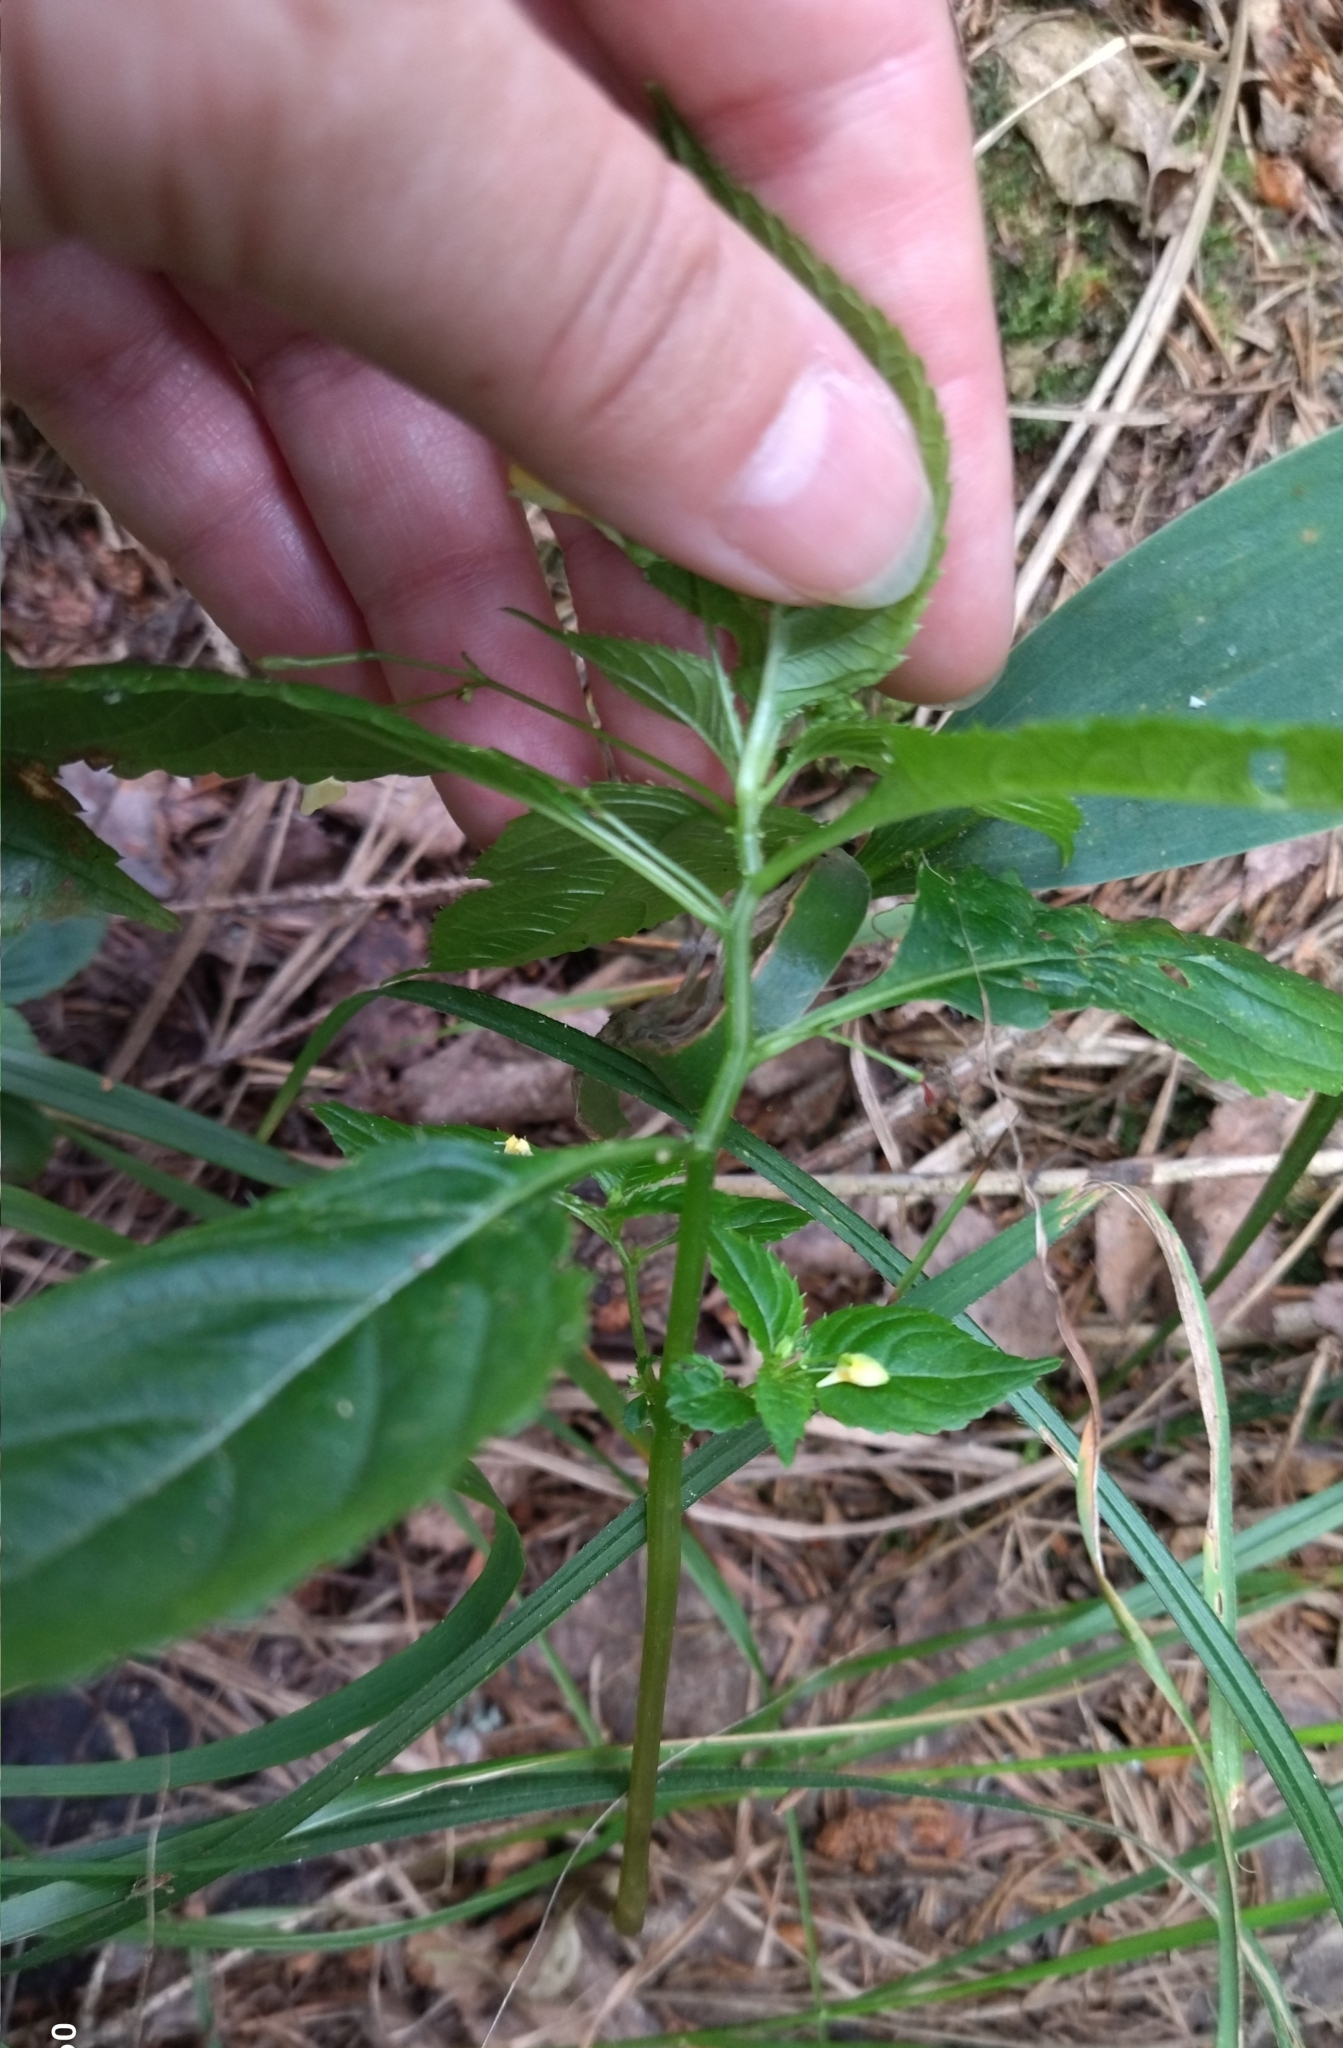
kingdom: Plantae
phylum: Tracheophyta
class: Magnoliopsida
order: Ericales
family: Balsaminaceae
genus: Impatiens
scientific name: Impatiens parviflora
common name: Small balsam
